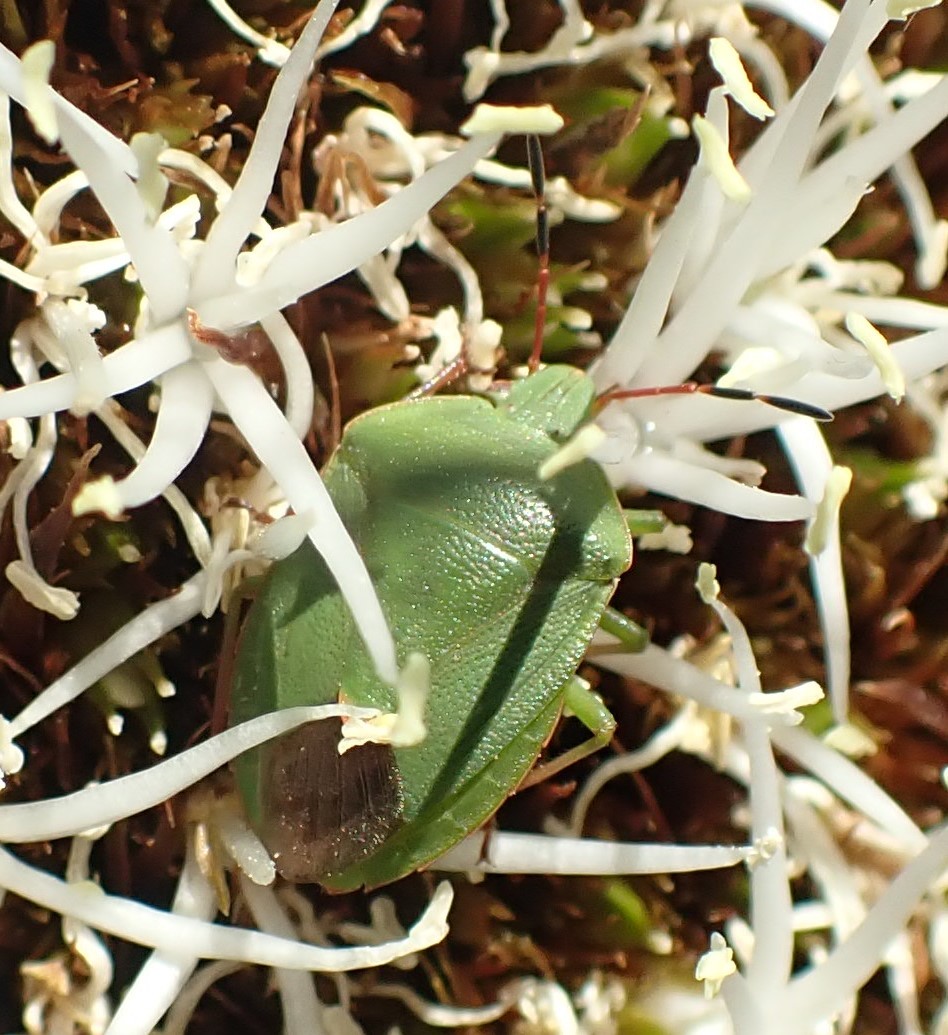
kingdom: Animalia
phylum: Arthropoda
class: Insecta
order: Hemiptera
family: Pentatomidae
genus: Ocirrhoe
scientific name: Ocirrhoe
